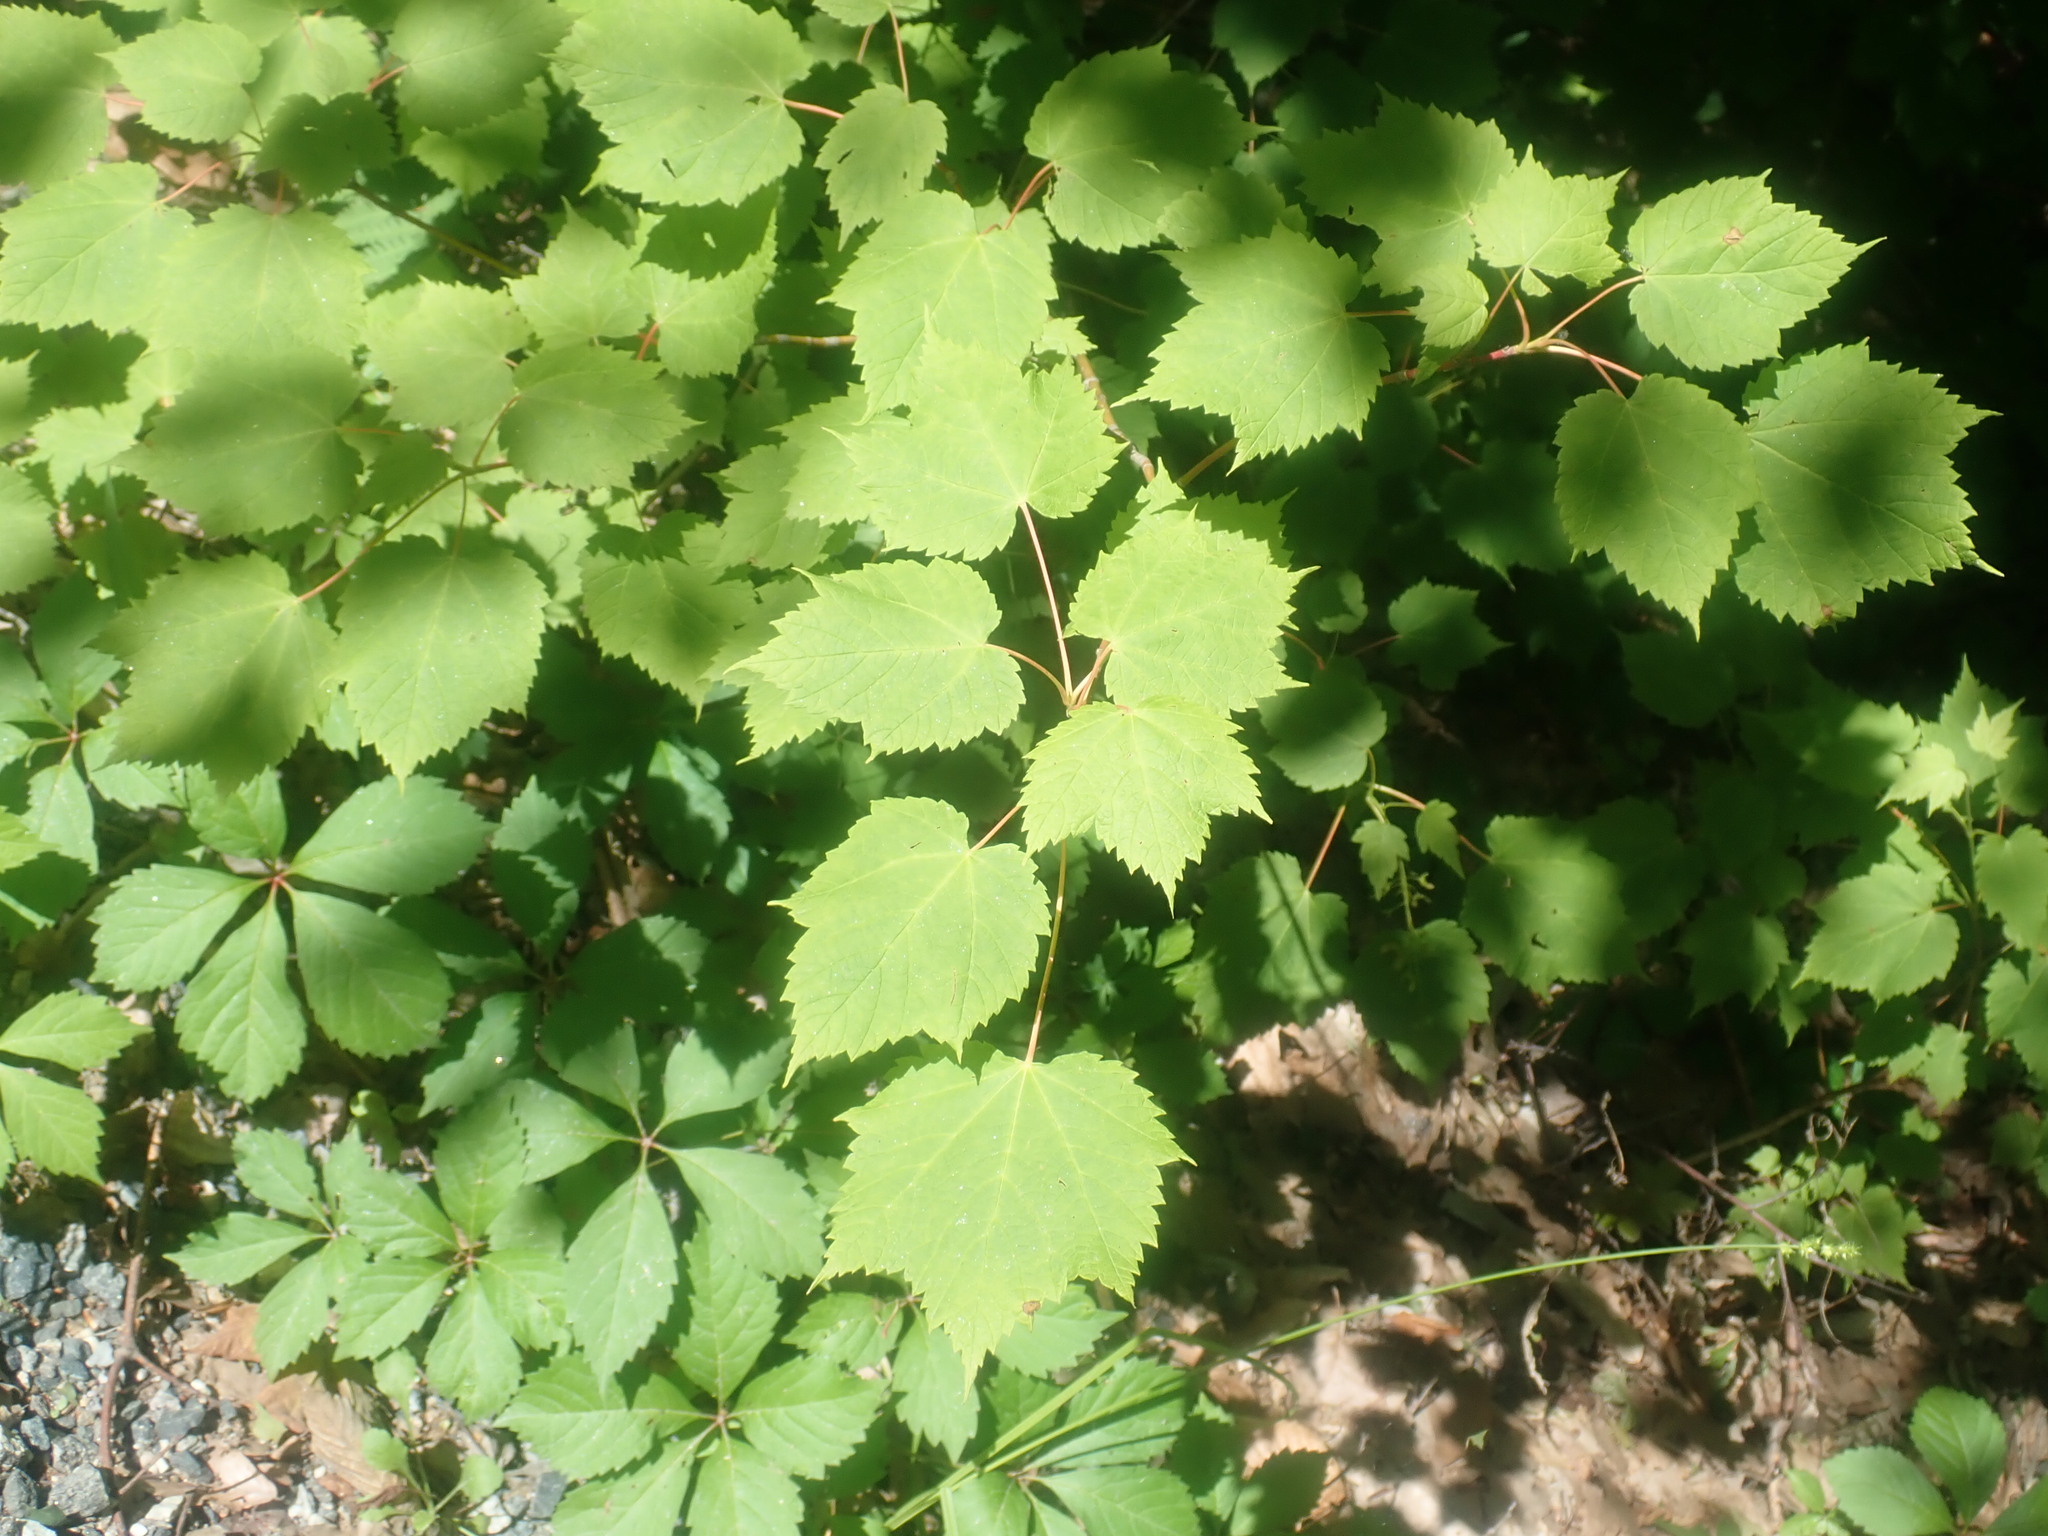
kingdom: Plantae
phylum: Tracheophyta
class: Magnoliopsida
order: Sapindales
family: Sapindaceae
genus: Acer
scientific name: Acer spicatum
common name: Mountain maple
